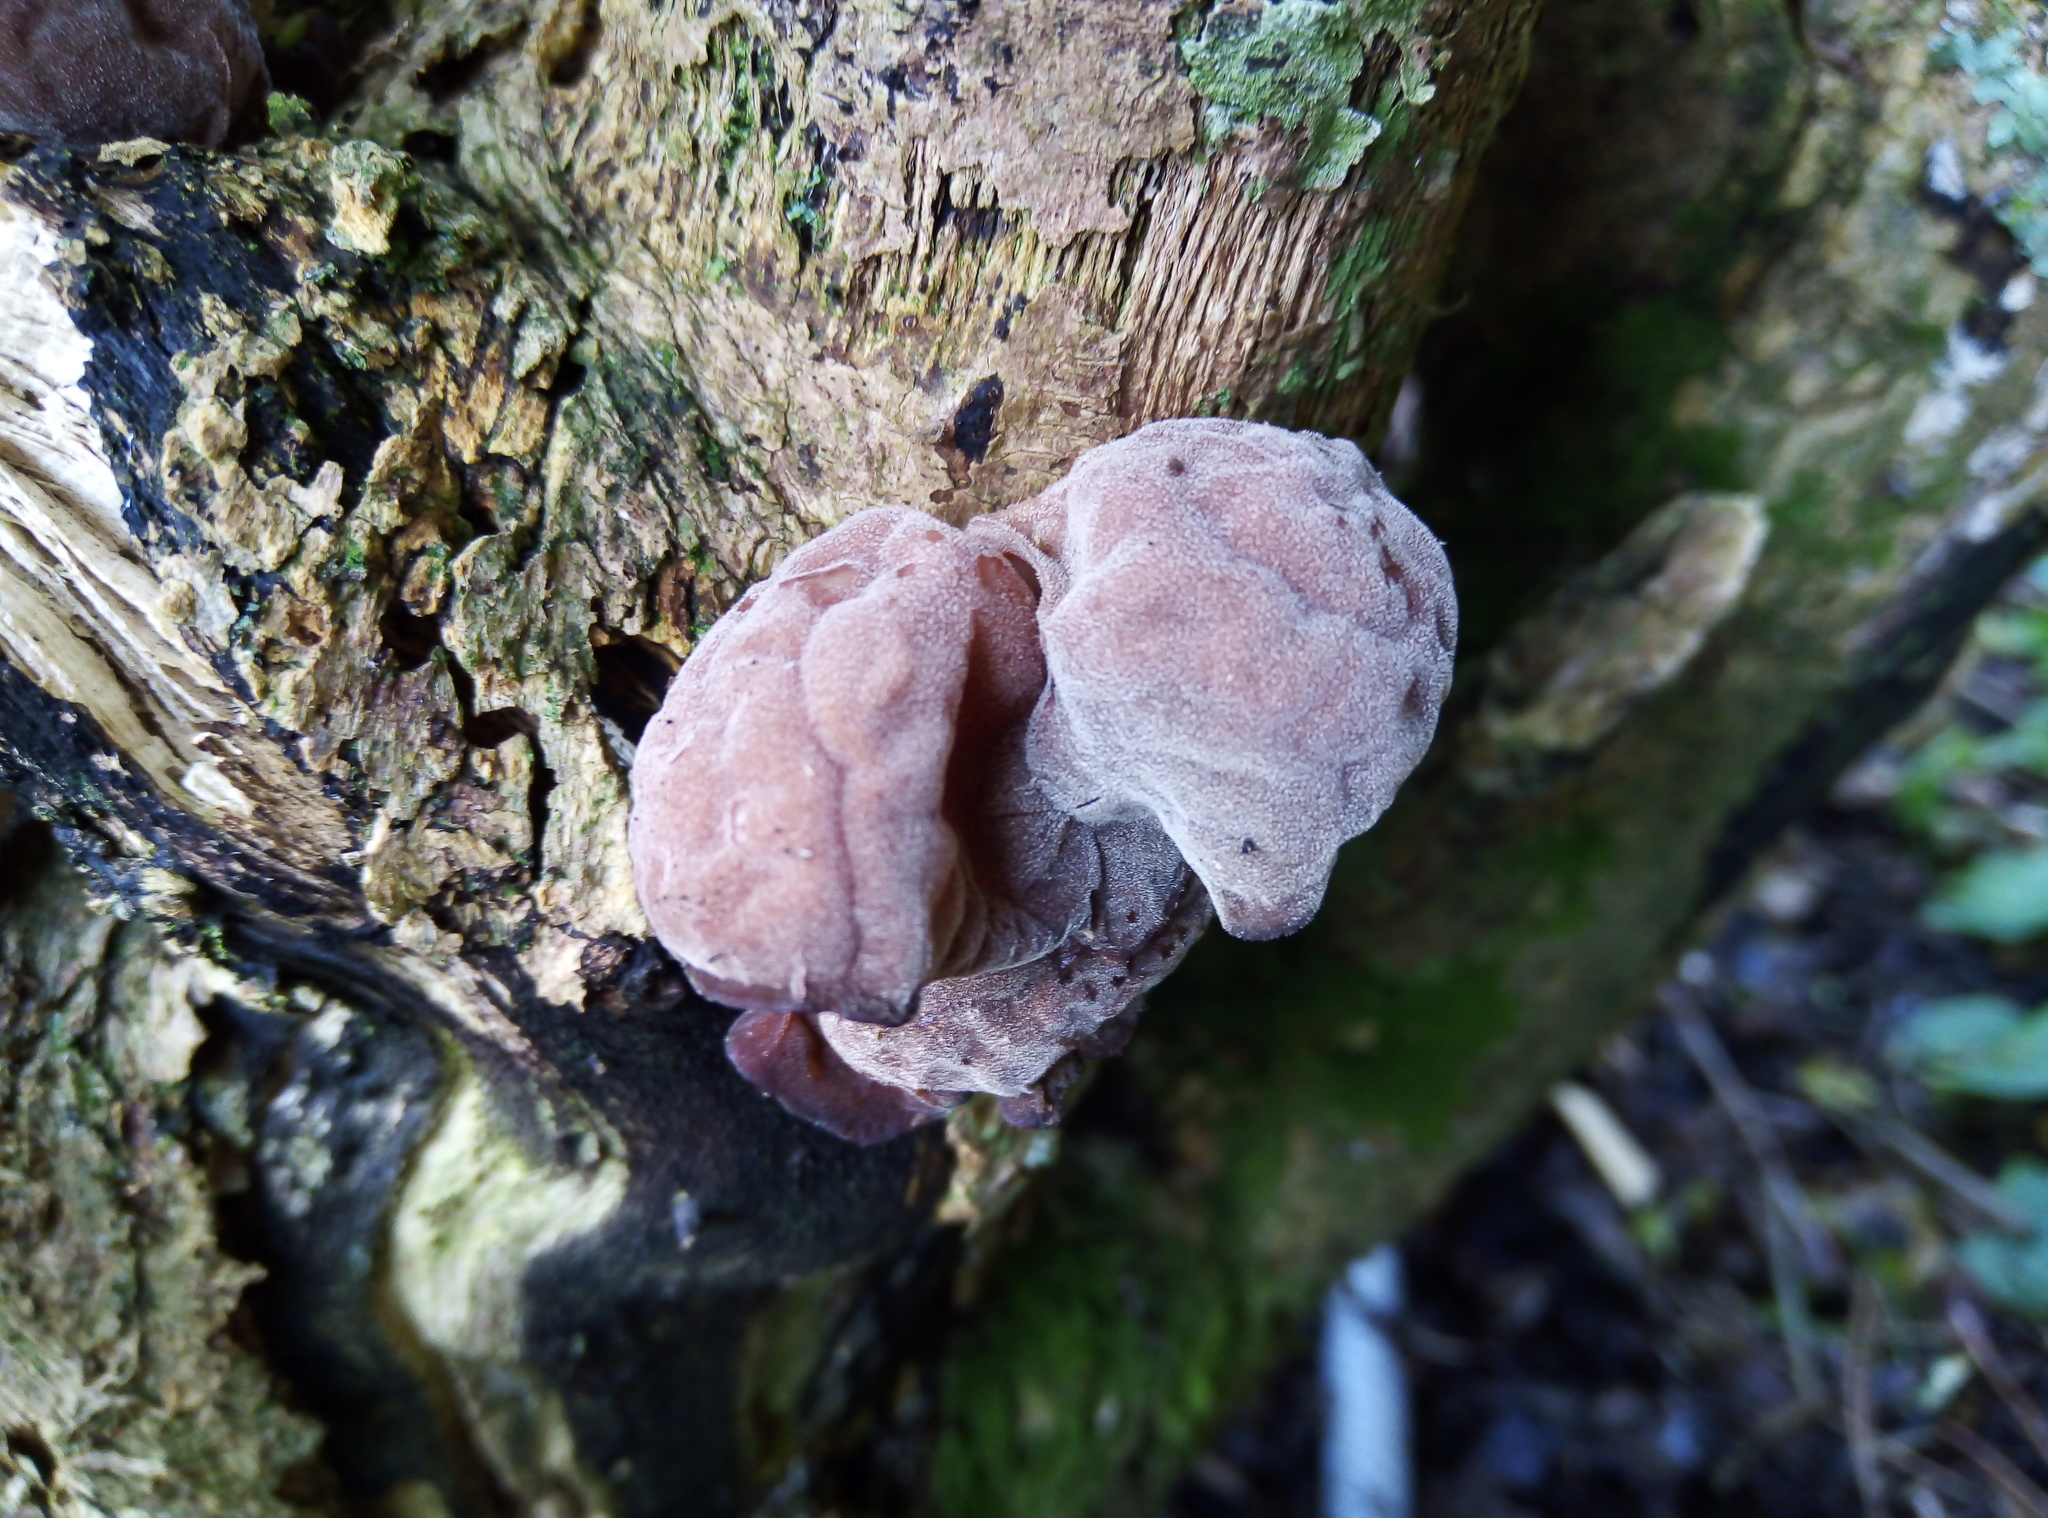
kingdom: Fungi
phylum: Basidiomycota
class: Agaricomycetes
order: Auriculariales
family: Auriculariaceae
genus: Auricularia
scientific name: Auricularia auricula-judae
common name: Jelly ear
